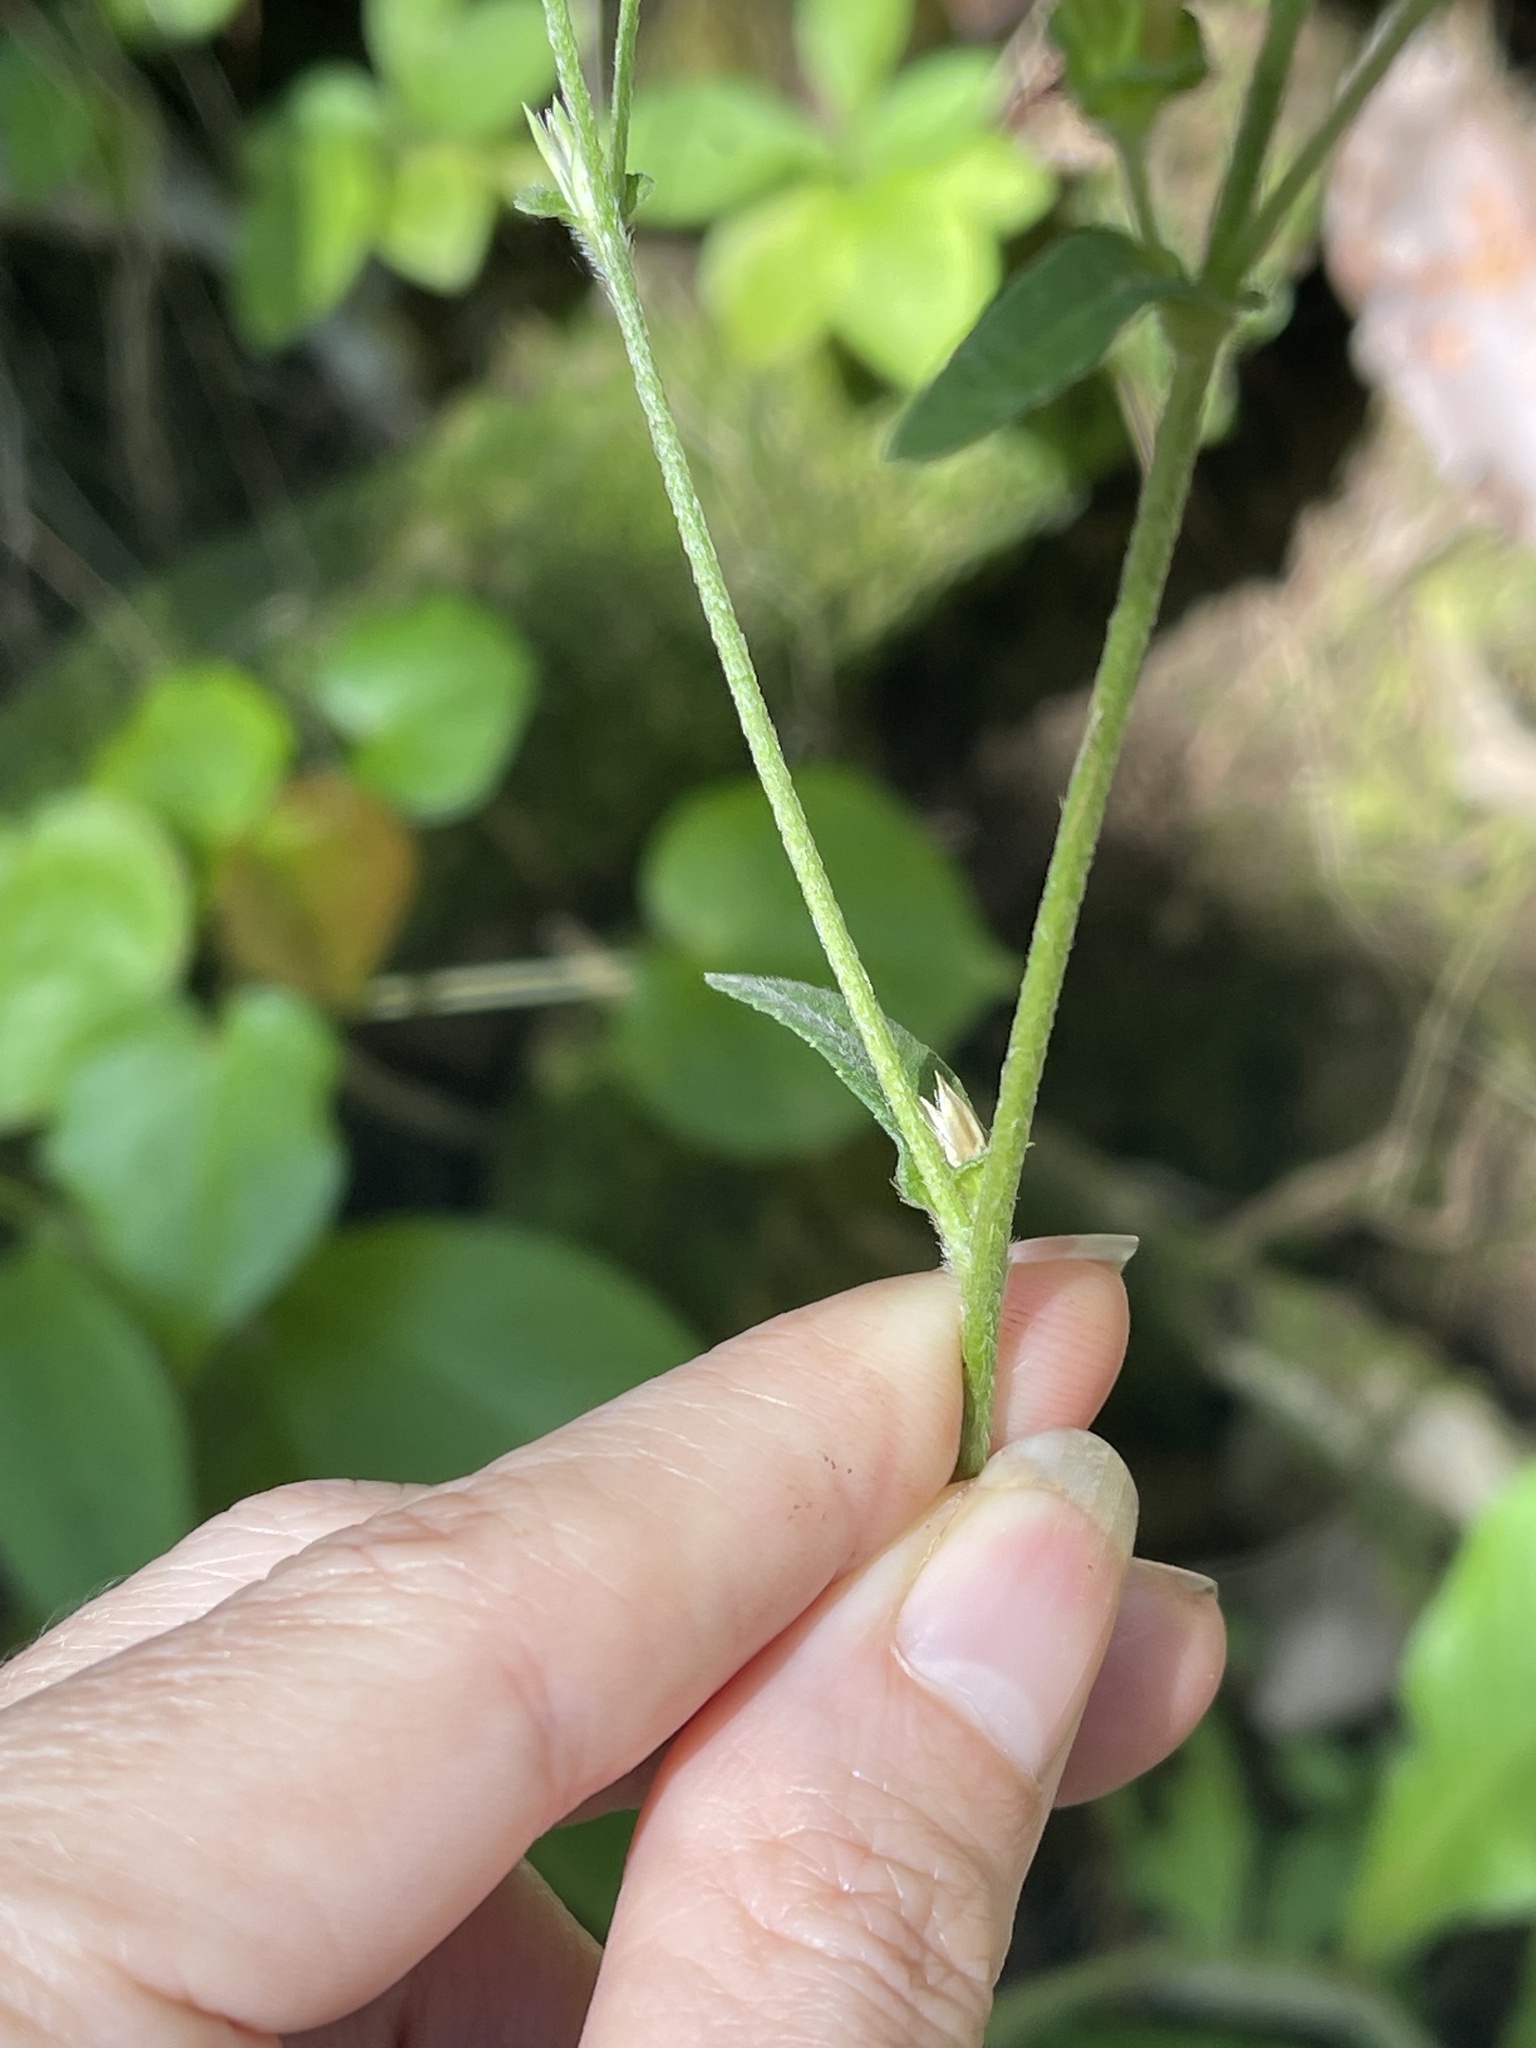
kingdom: Plantae
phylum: Tracheophyta
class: Magnoliopsida
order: Asterales
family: Asteraceae
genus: Elephantopus
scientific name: Elephantopus mollis
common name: Soft elephantsfoot
